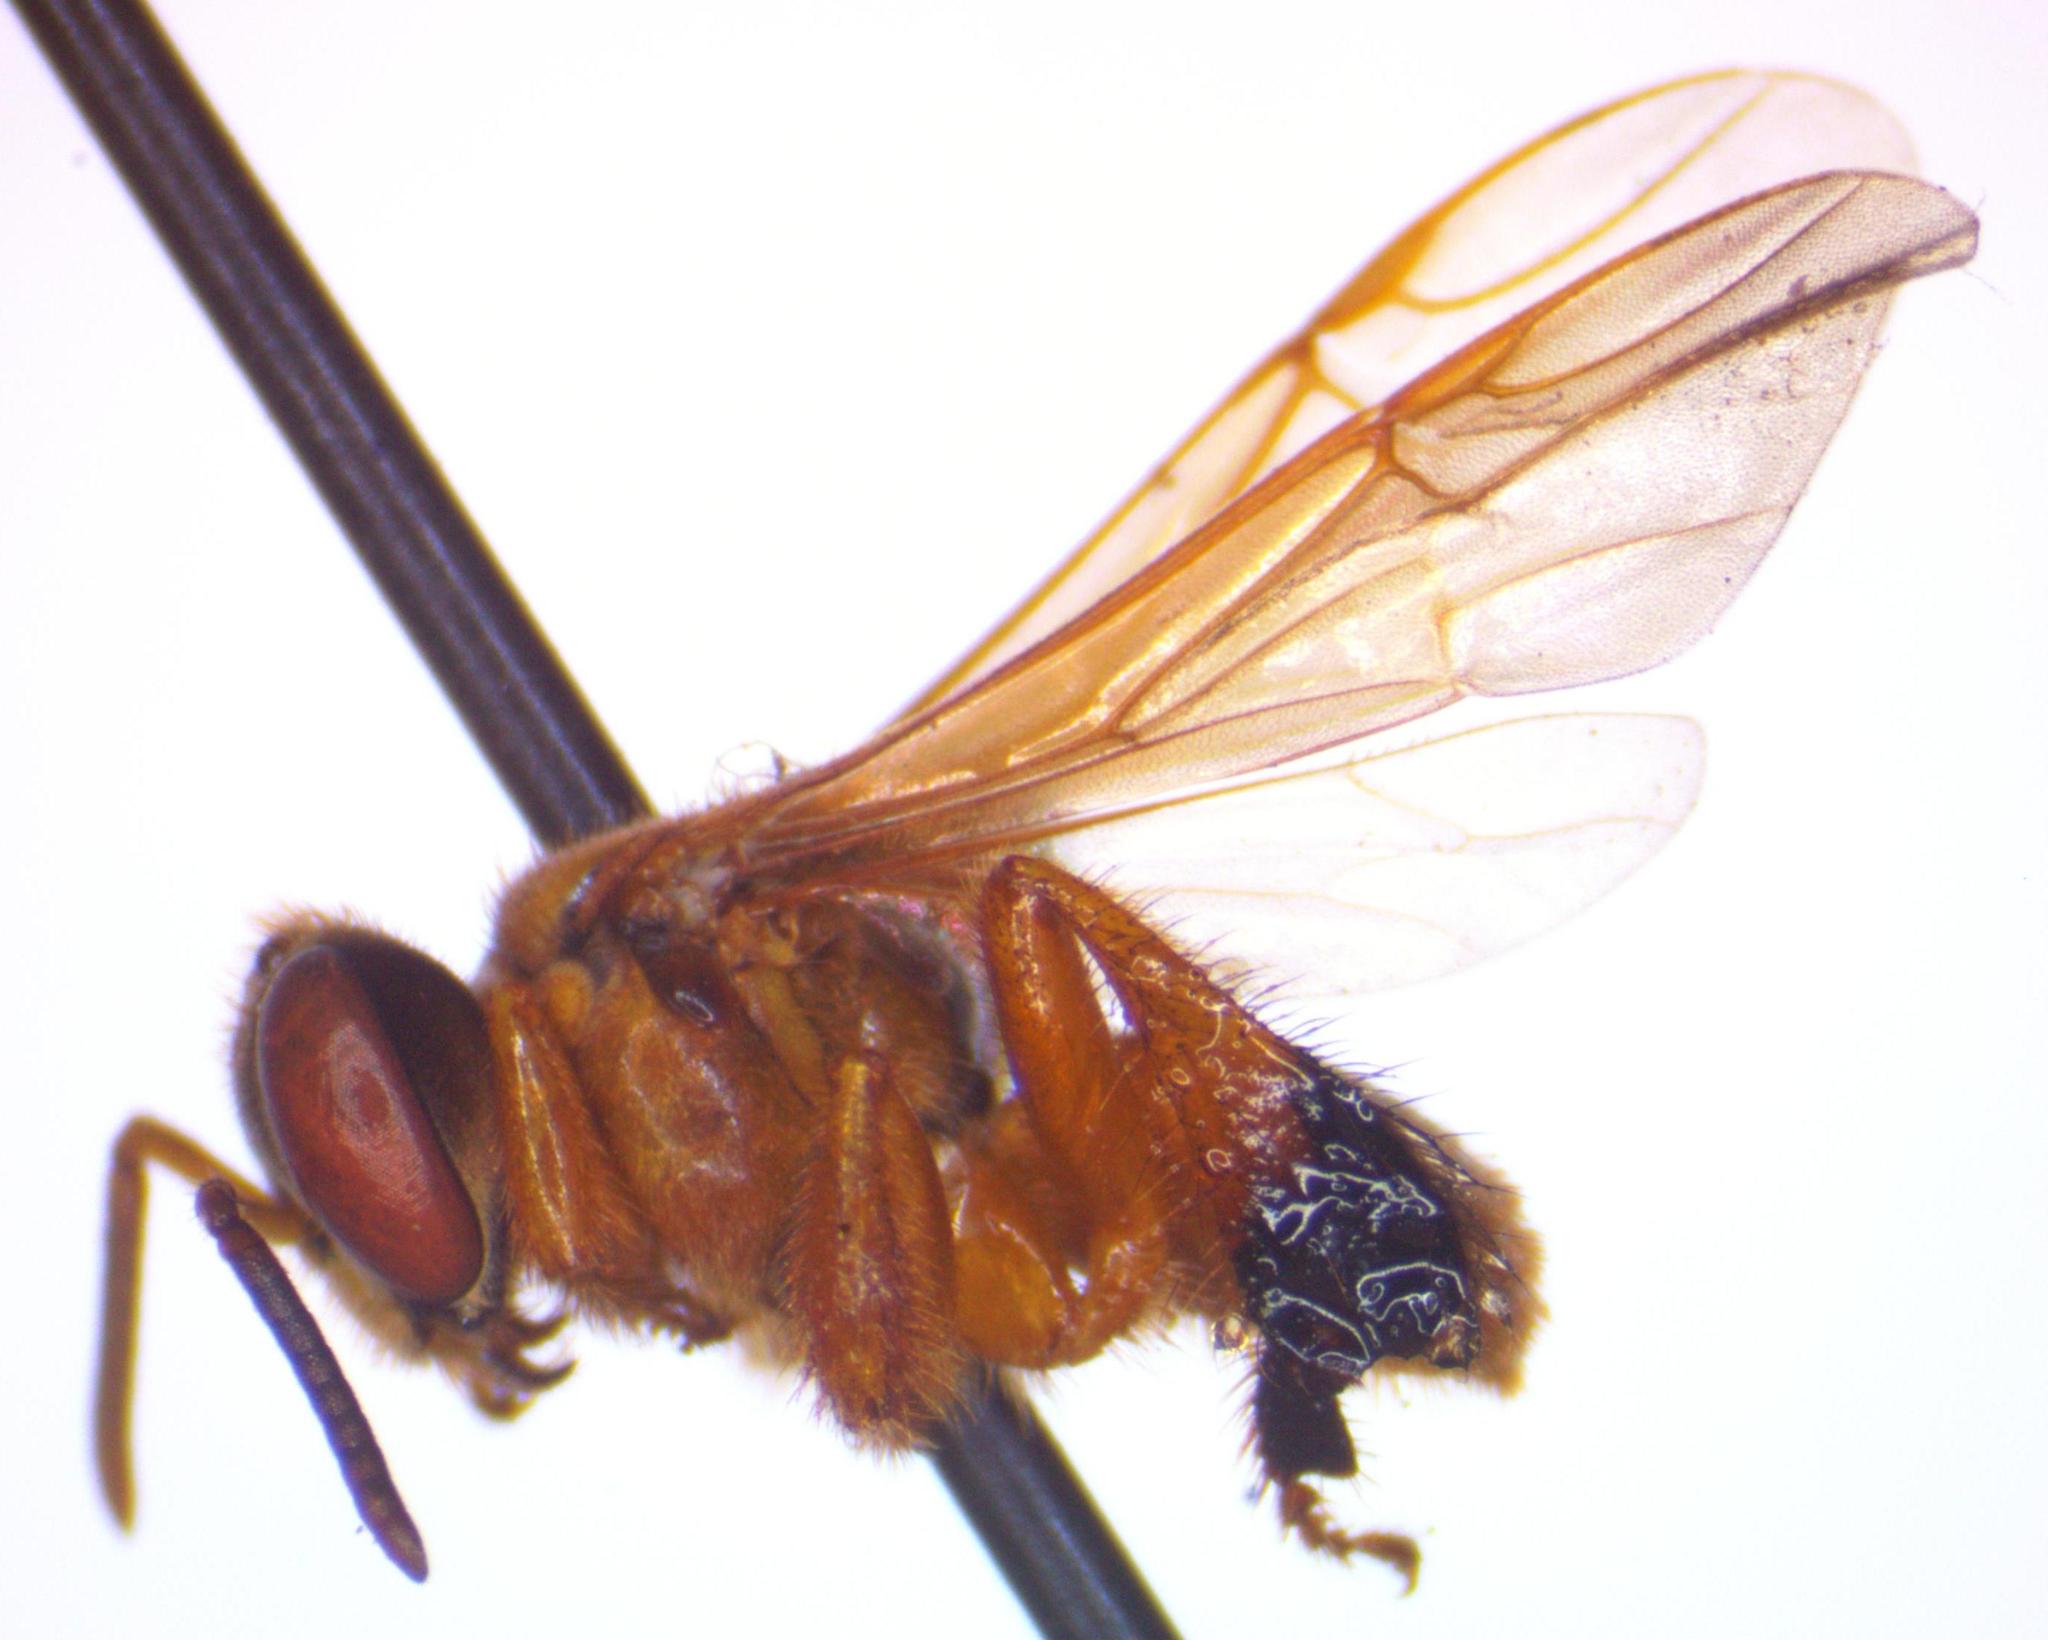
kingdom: Animalia
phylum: Arthropoda
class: Insecta
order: Hymenoptera
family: Apidae
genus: Tetragona
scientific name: Tetragona ziegleri
